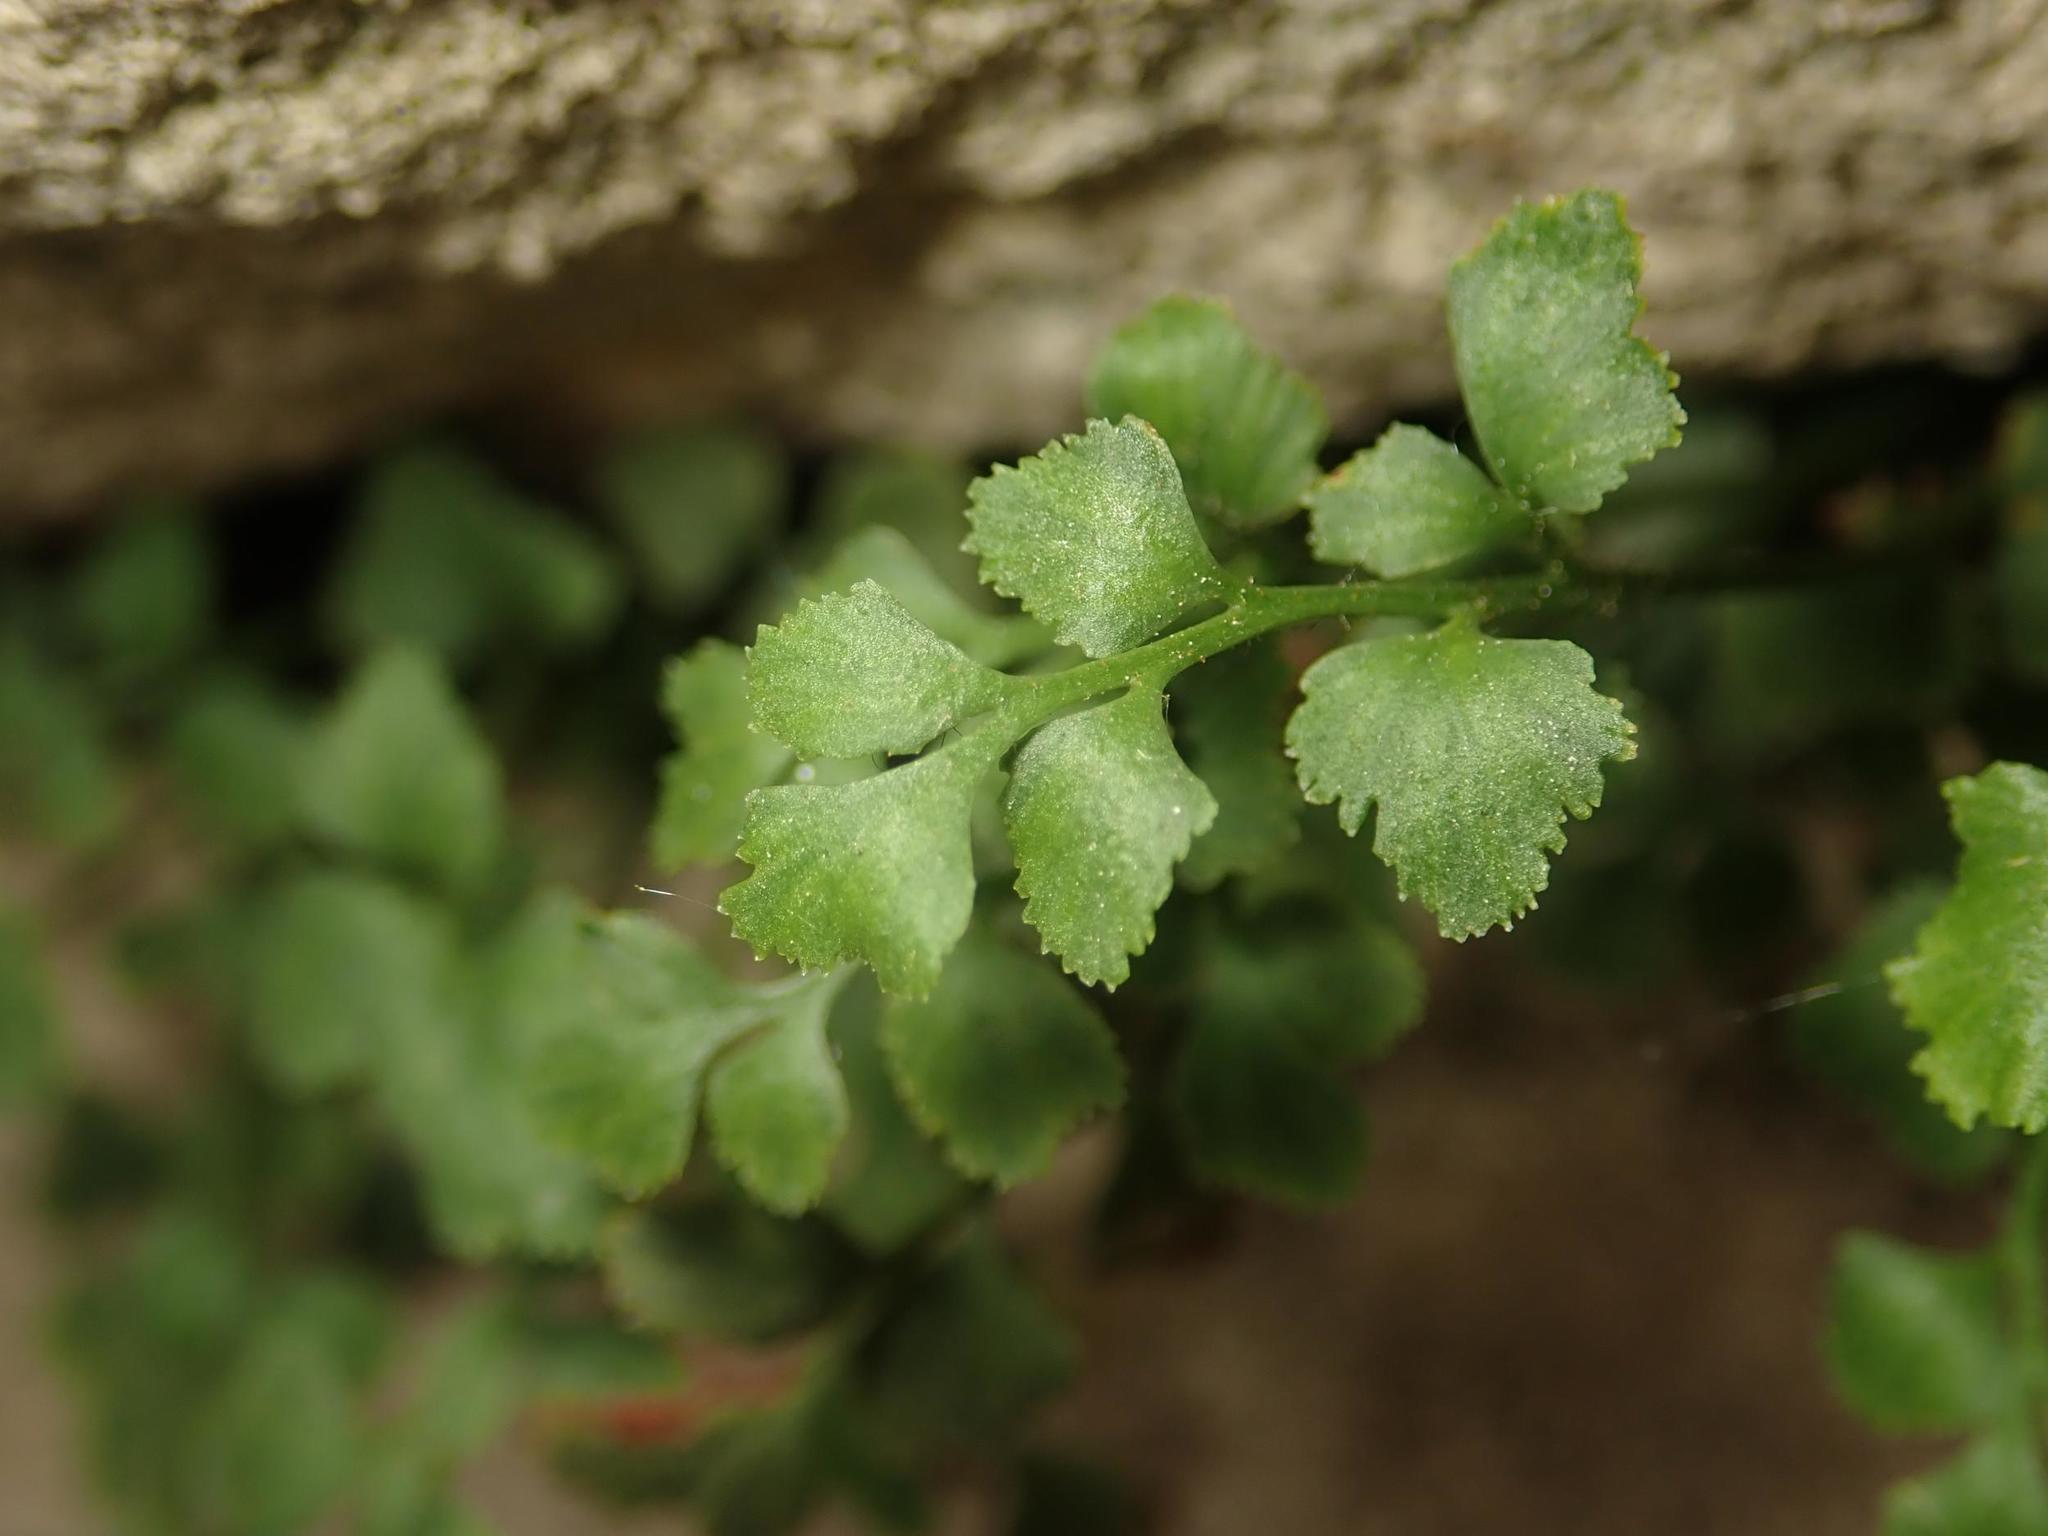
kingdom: Plantae
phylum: Tracheophyta
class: Polypodiopsida
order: Polypodiales
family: Aspleniaceae
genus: Asplenium
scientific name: Asplenium ruta-muraria
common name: Wall-rue
